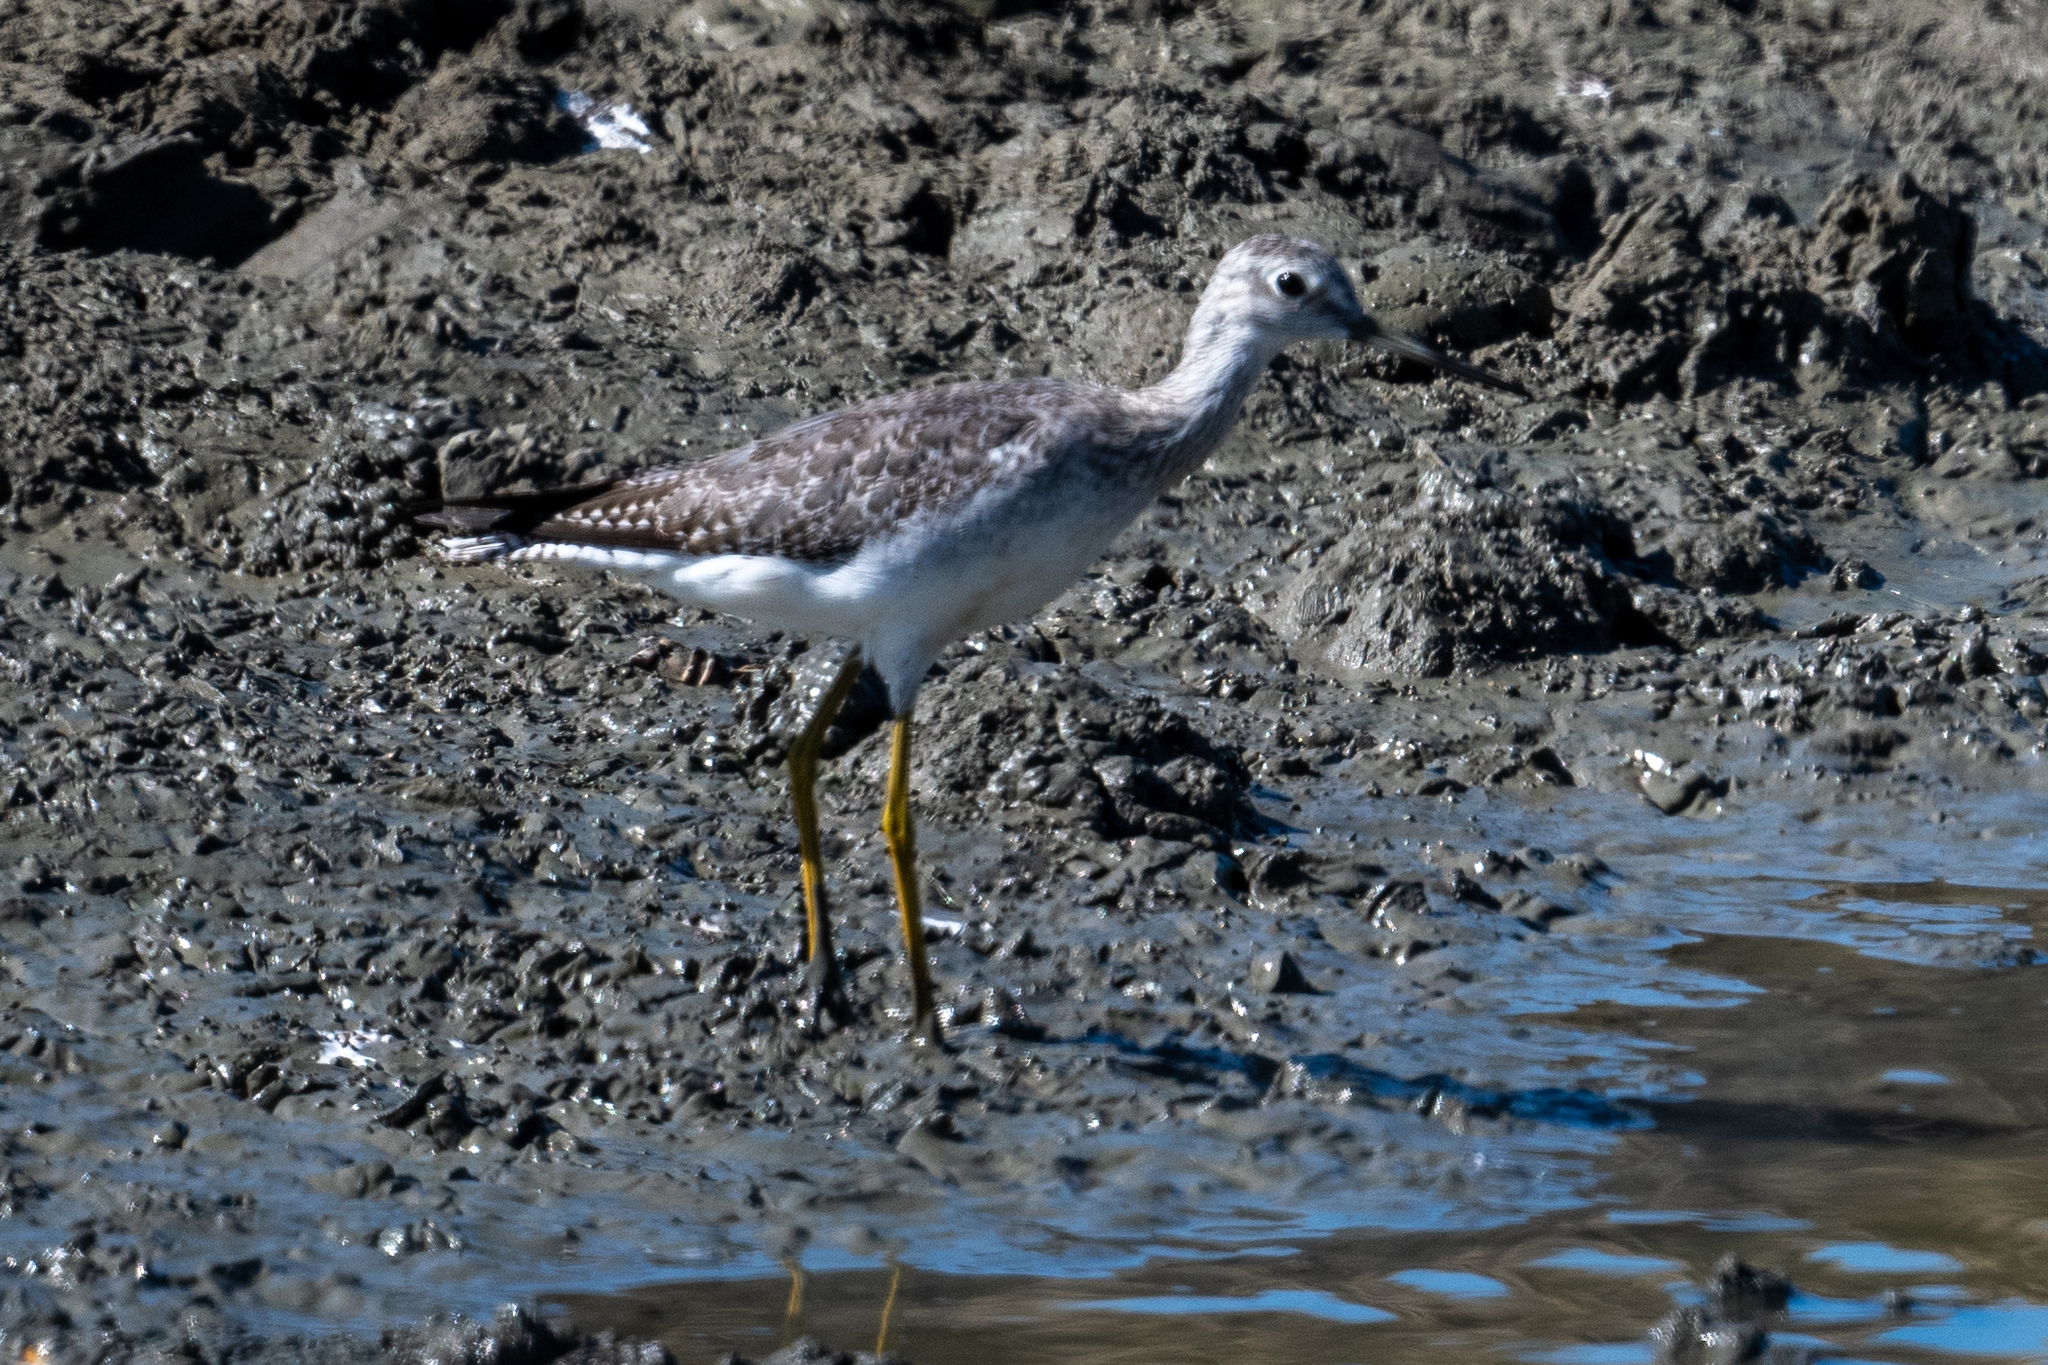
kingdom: Animalia
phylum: Chordata
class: Aves
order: Charadriiformes
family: Scolopacidae
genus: Tringa
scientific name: Tringa melanoleuca
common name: Greater yellowlegs
